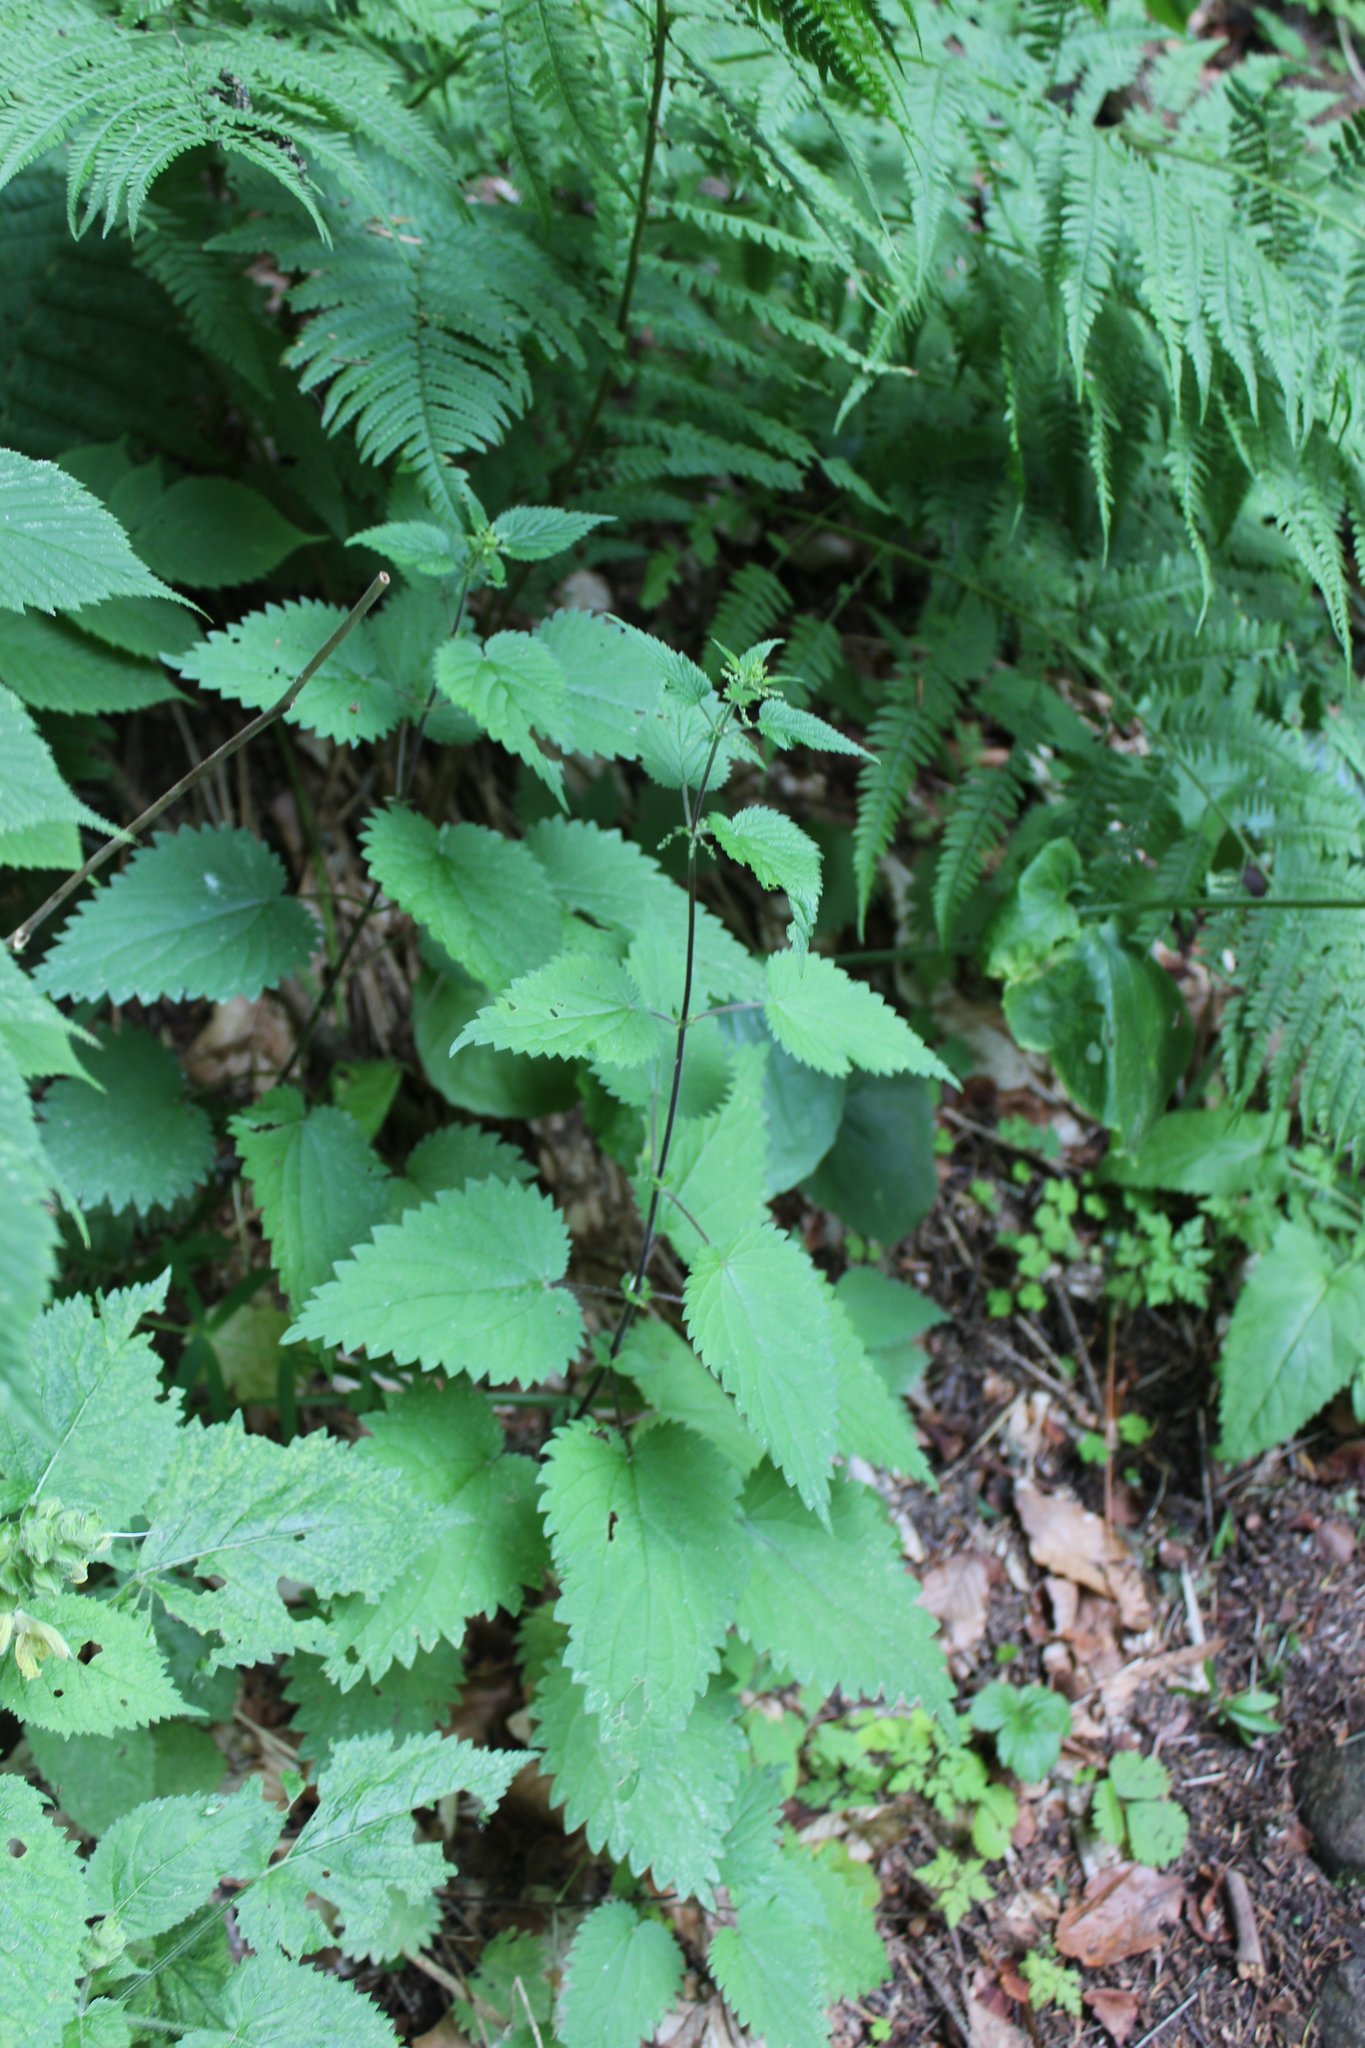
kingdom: Plantae
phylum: Tracheophyta
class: Magnoliopsida
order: Rosales
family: Urticaceae
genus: Urtica
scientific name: Urtica dioica
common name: Common nettle
